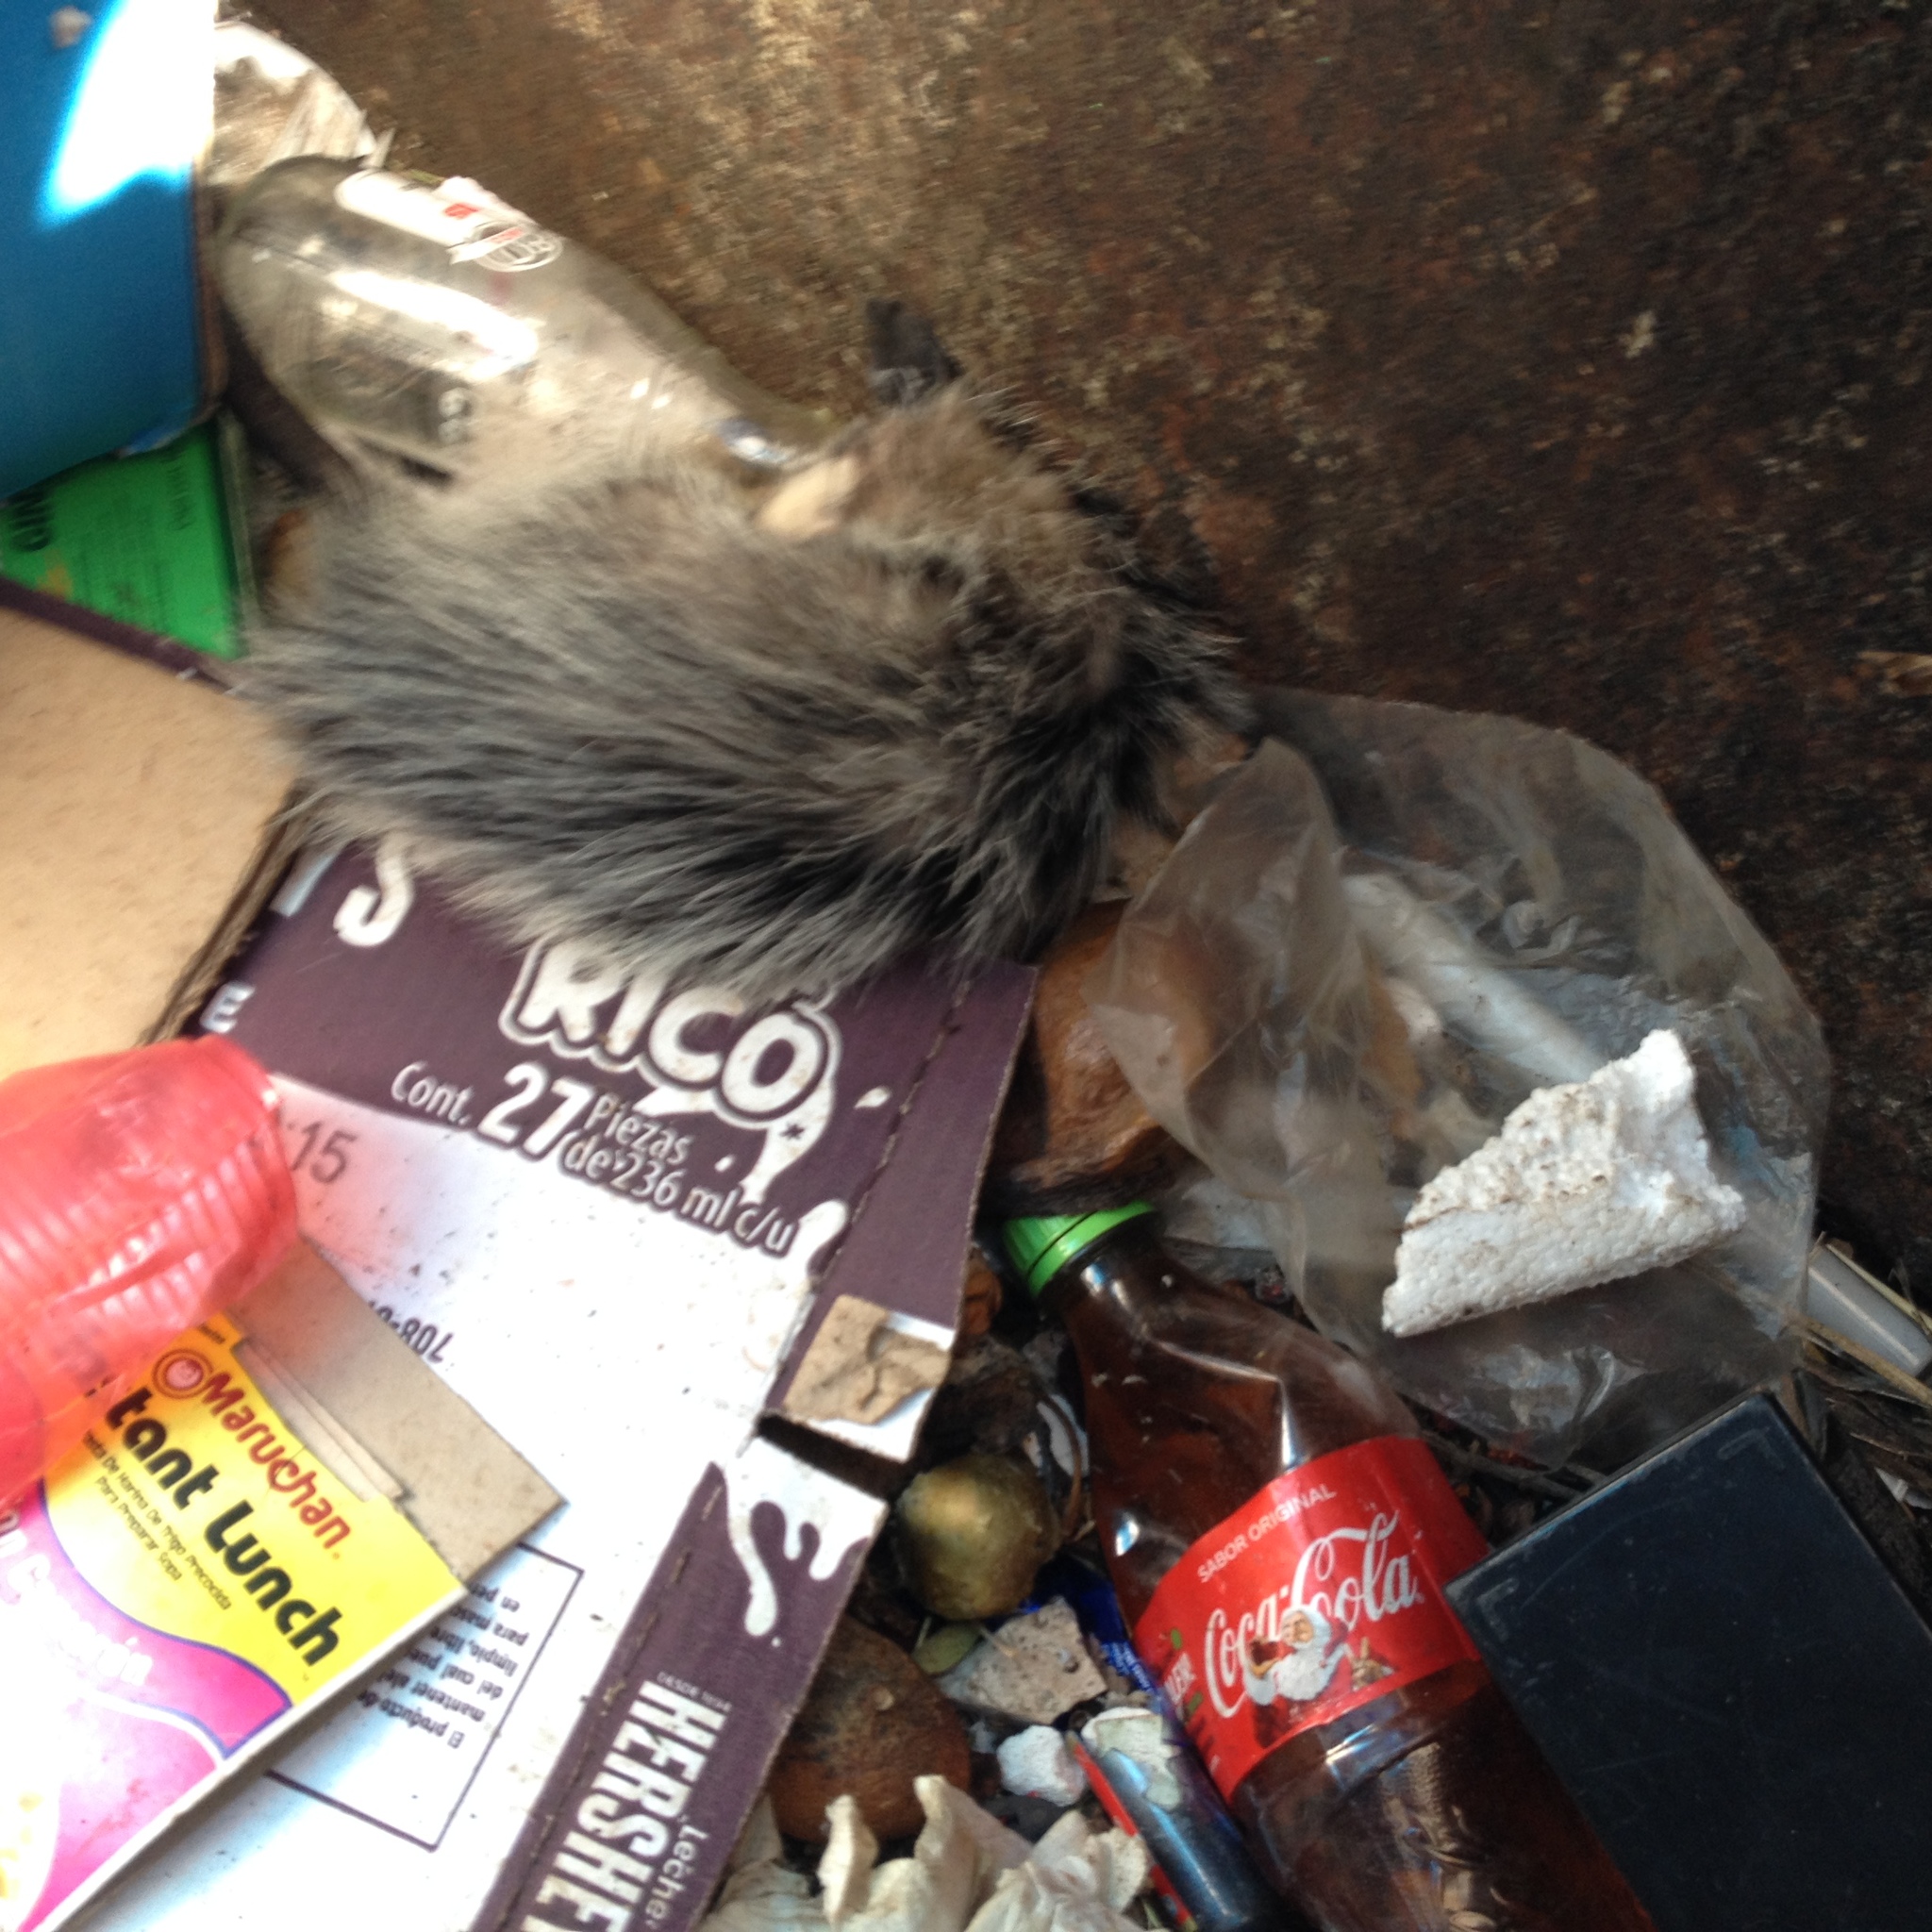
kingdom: Animalia
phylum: Chordata
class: Mammalia
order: Didelphimorphia
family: Didelphidae
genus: Didelphis
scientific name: Didelphis virginiana
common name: Virginia opossum
